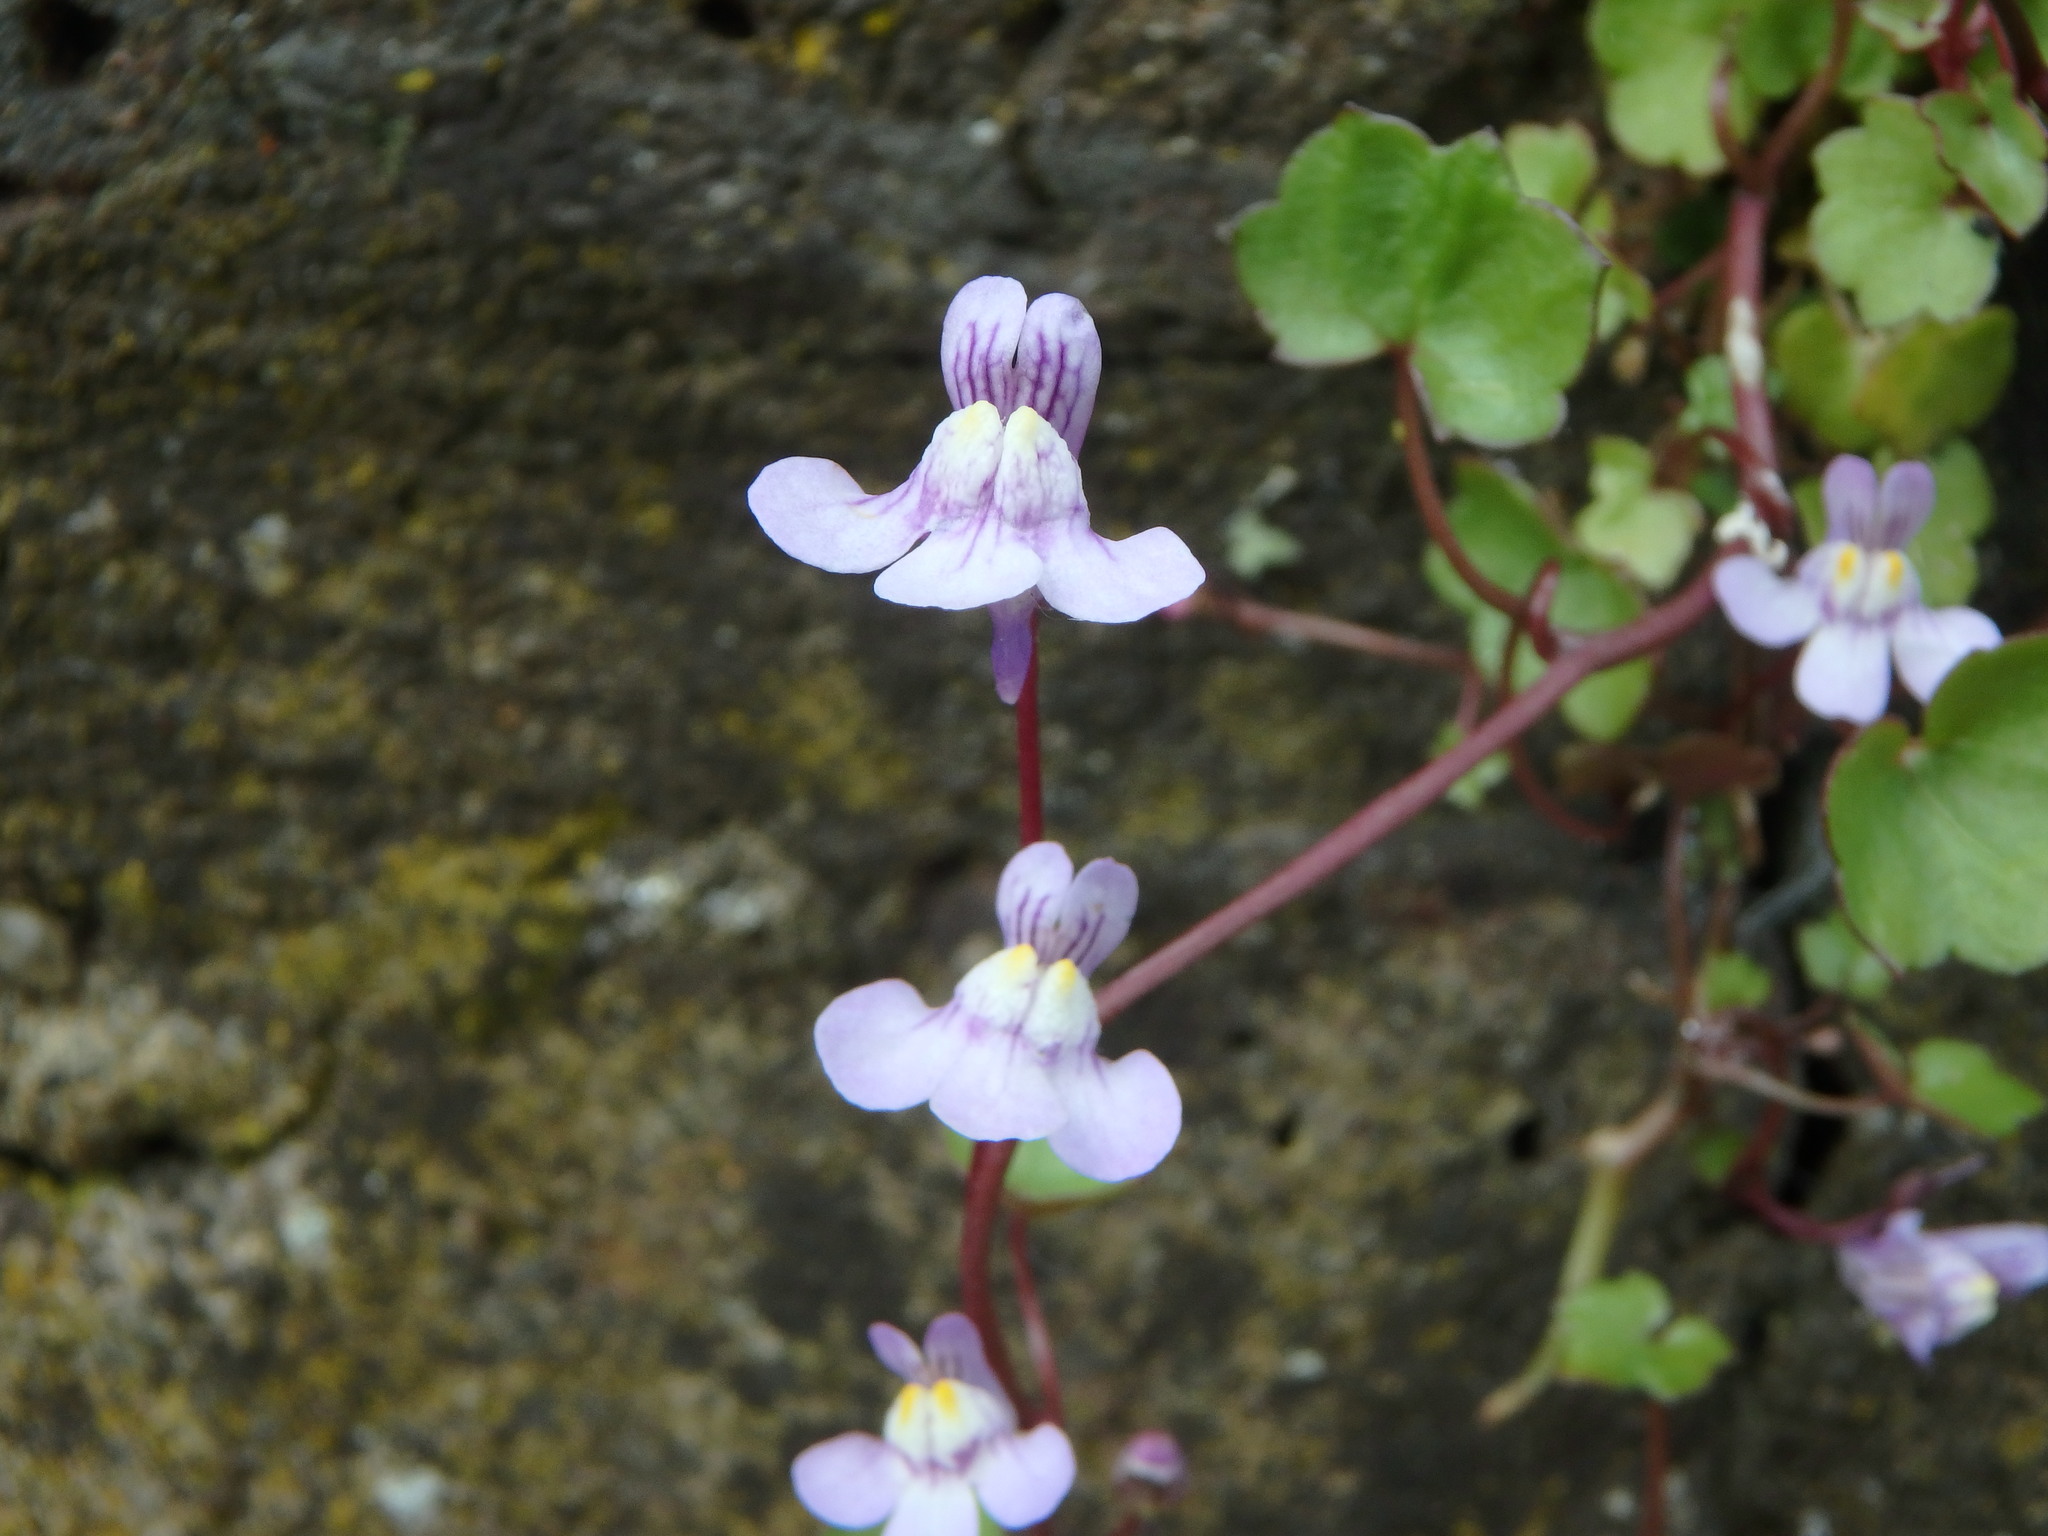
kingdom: Plantae
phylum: Tracheophyta
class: Magnoliopsida
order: Lamiales
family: Plantaginaceae
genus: Cymbalaria
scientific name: Cymbalaria muralis
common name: Ivy-leaved toadflax
